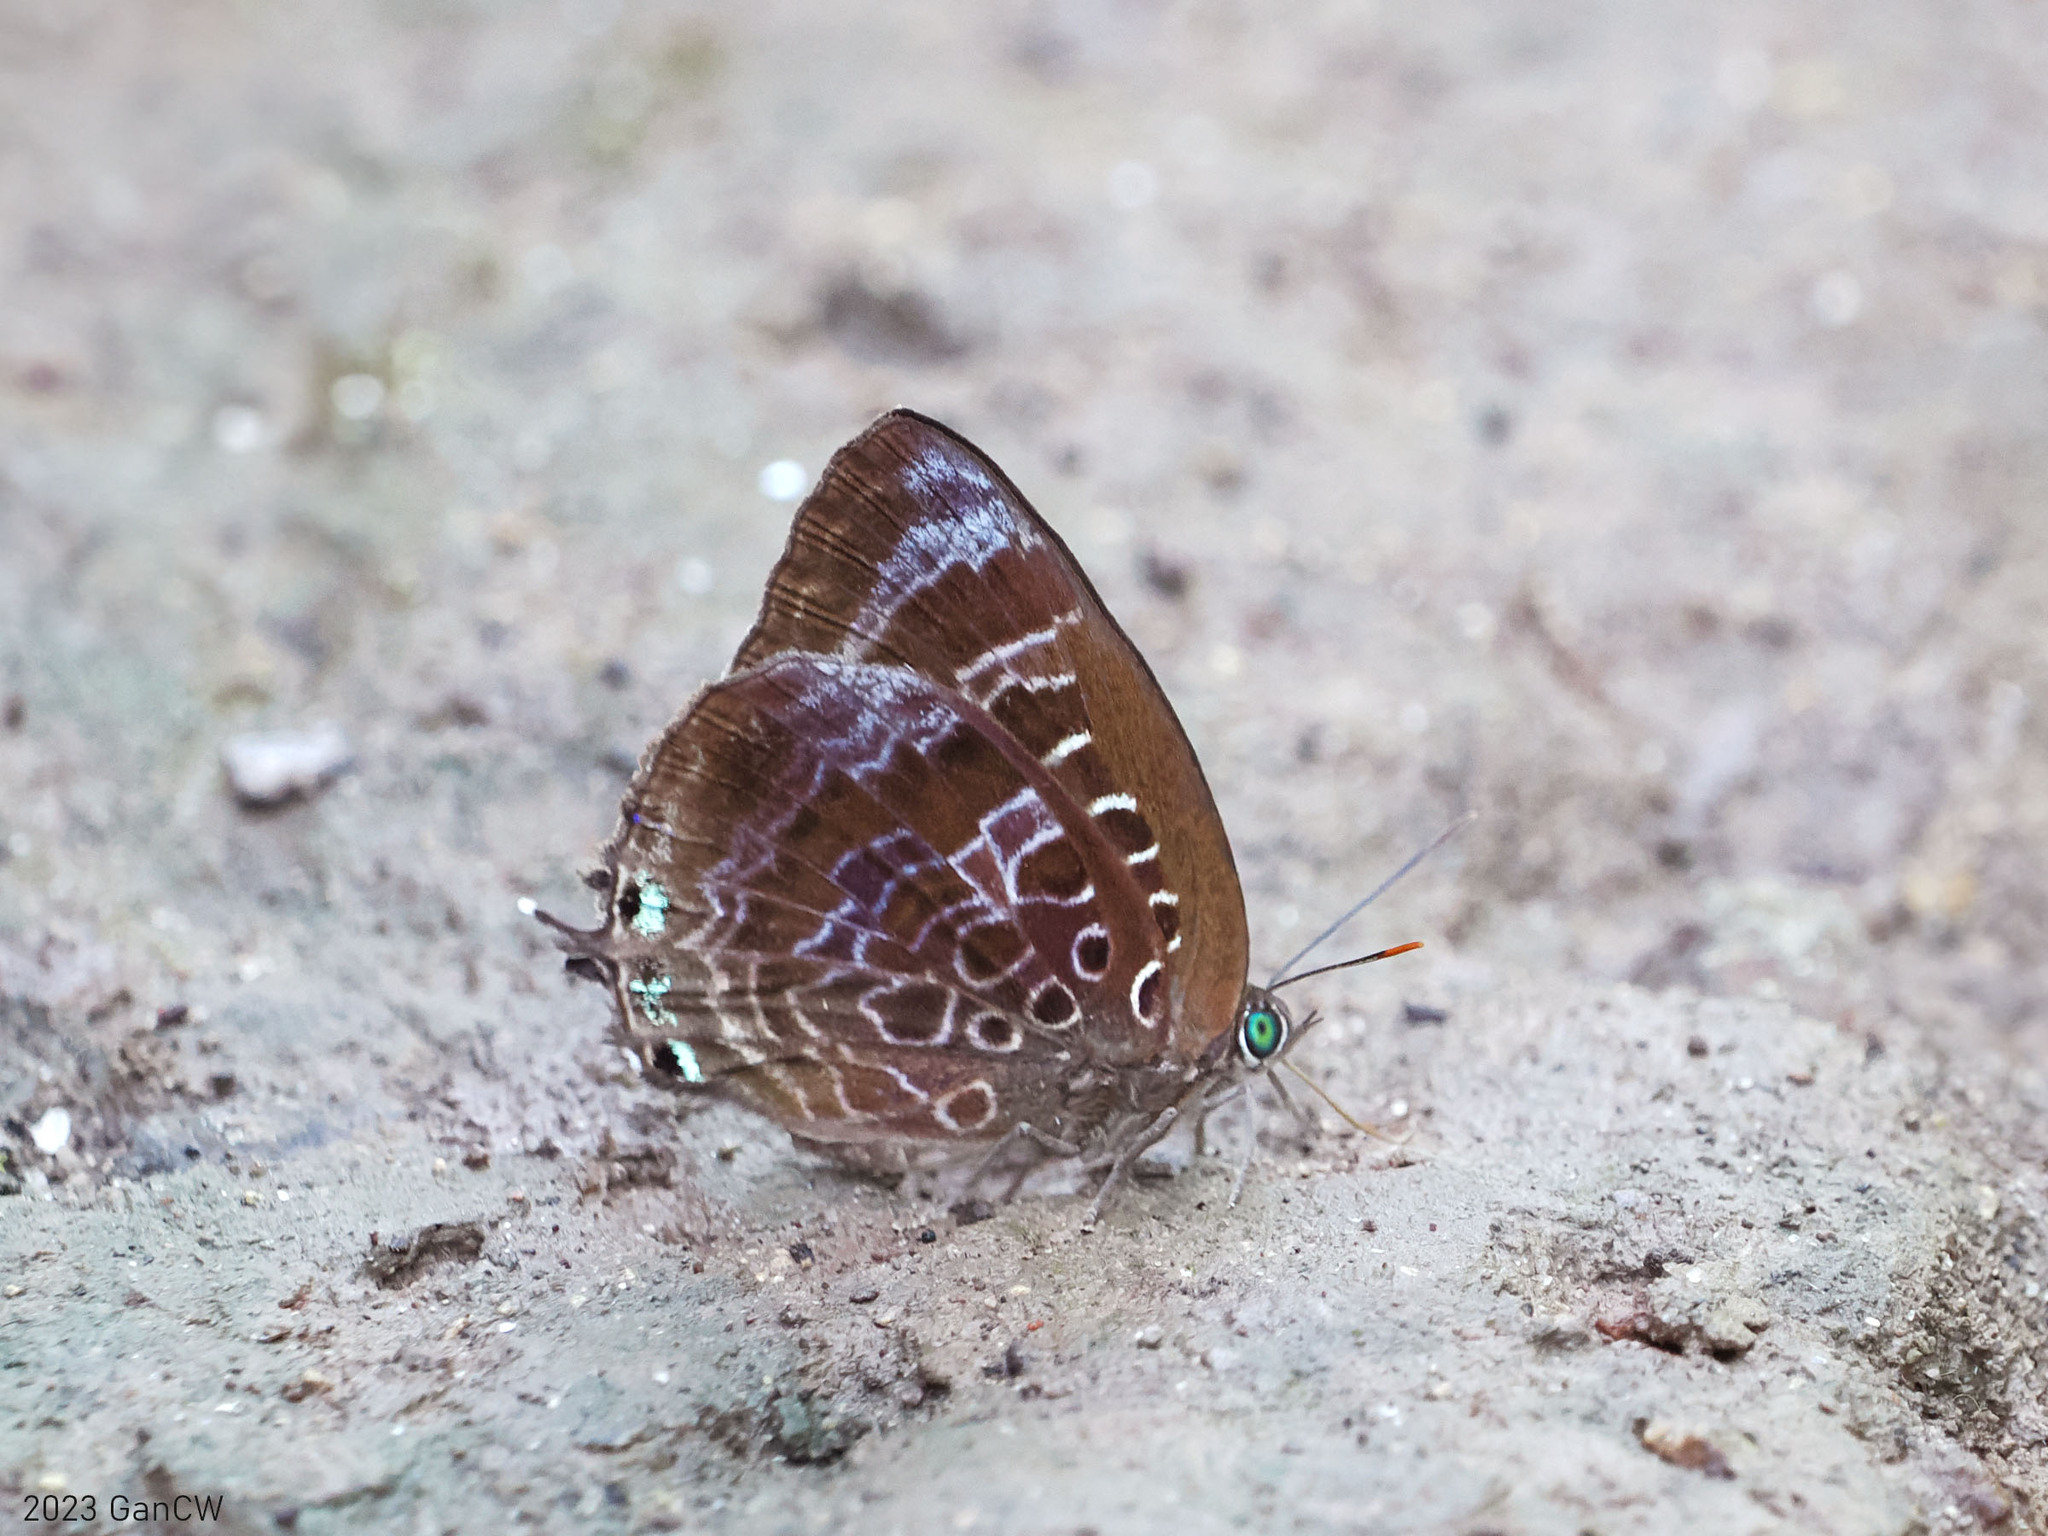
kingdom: Animalia
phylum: Arthropoda
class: Insecta
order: Lepidoptera
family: Lycaenidae
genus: Arhopala
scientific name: Arhopala centaurus
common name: Dull oak-blue
